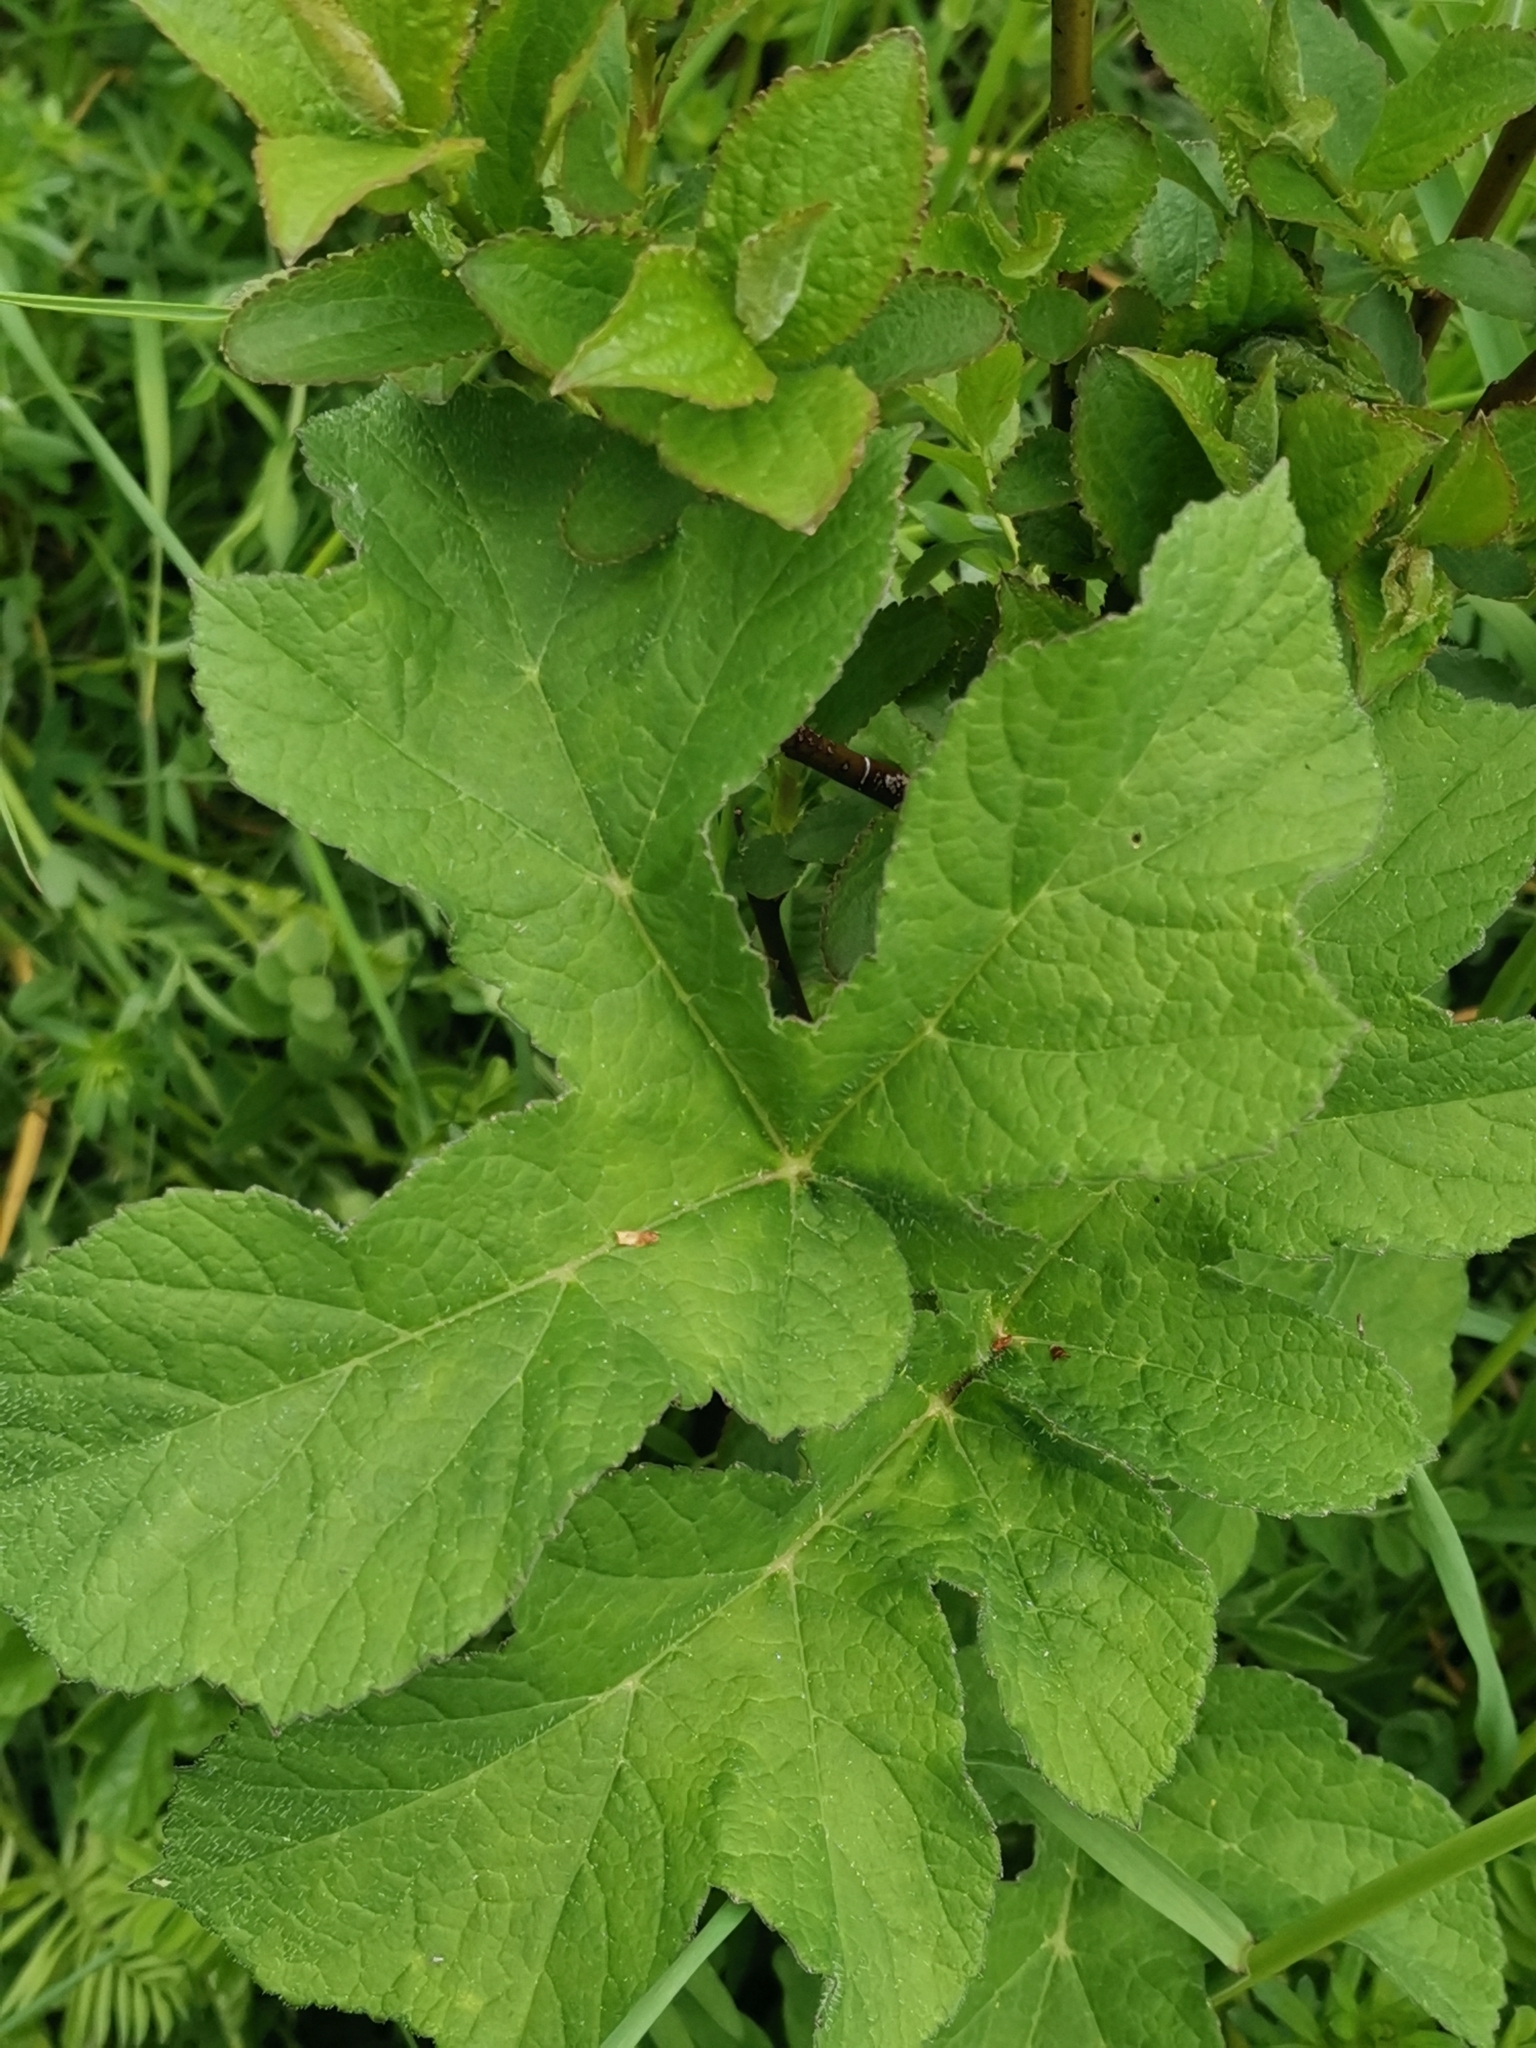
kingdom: Plantae
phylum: Tracheophyta
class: Magnoliopsida
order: Apiales
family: Apiaceae
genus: Heracleum
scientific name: Heracleum sphondylium
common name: Hogweed
